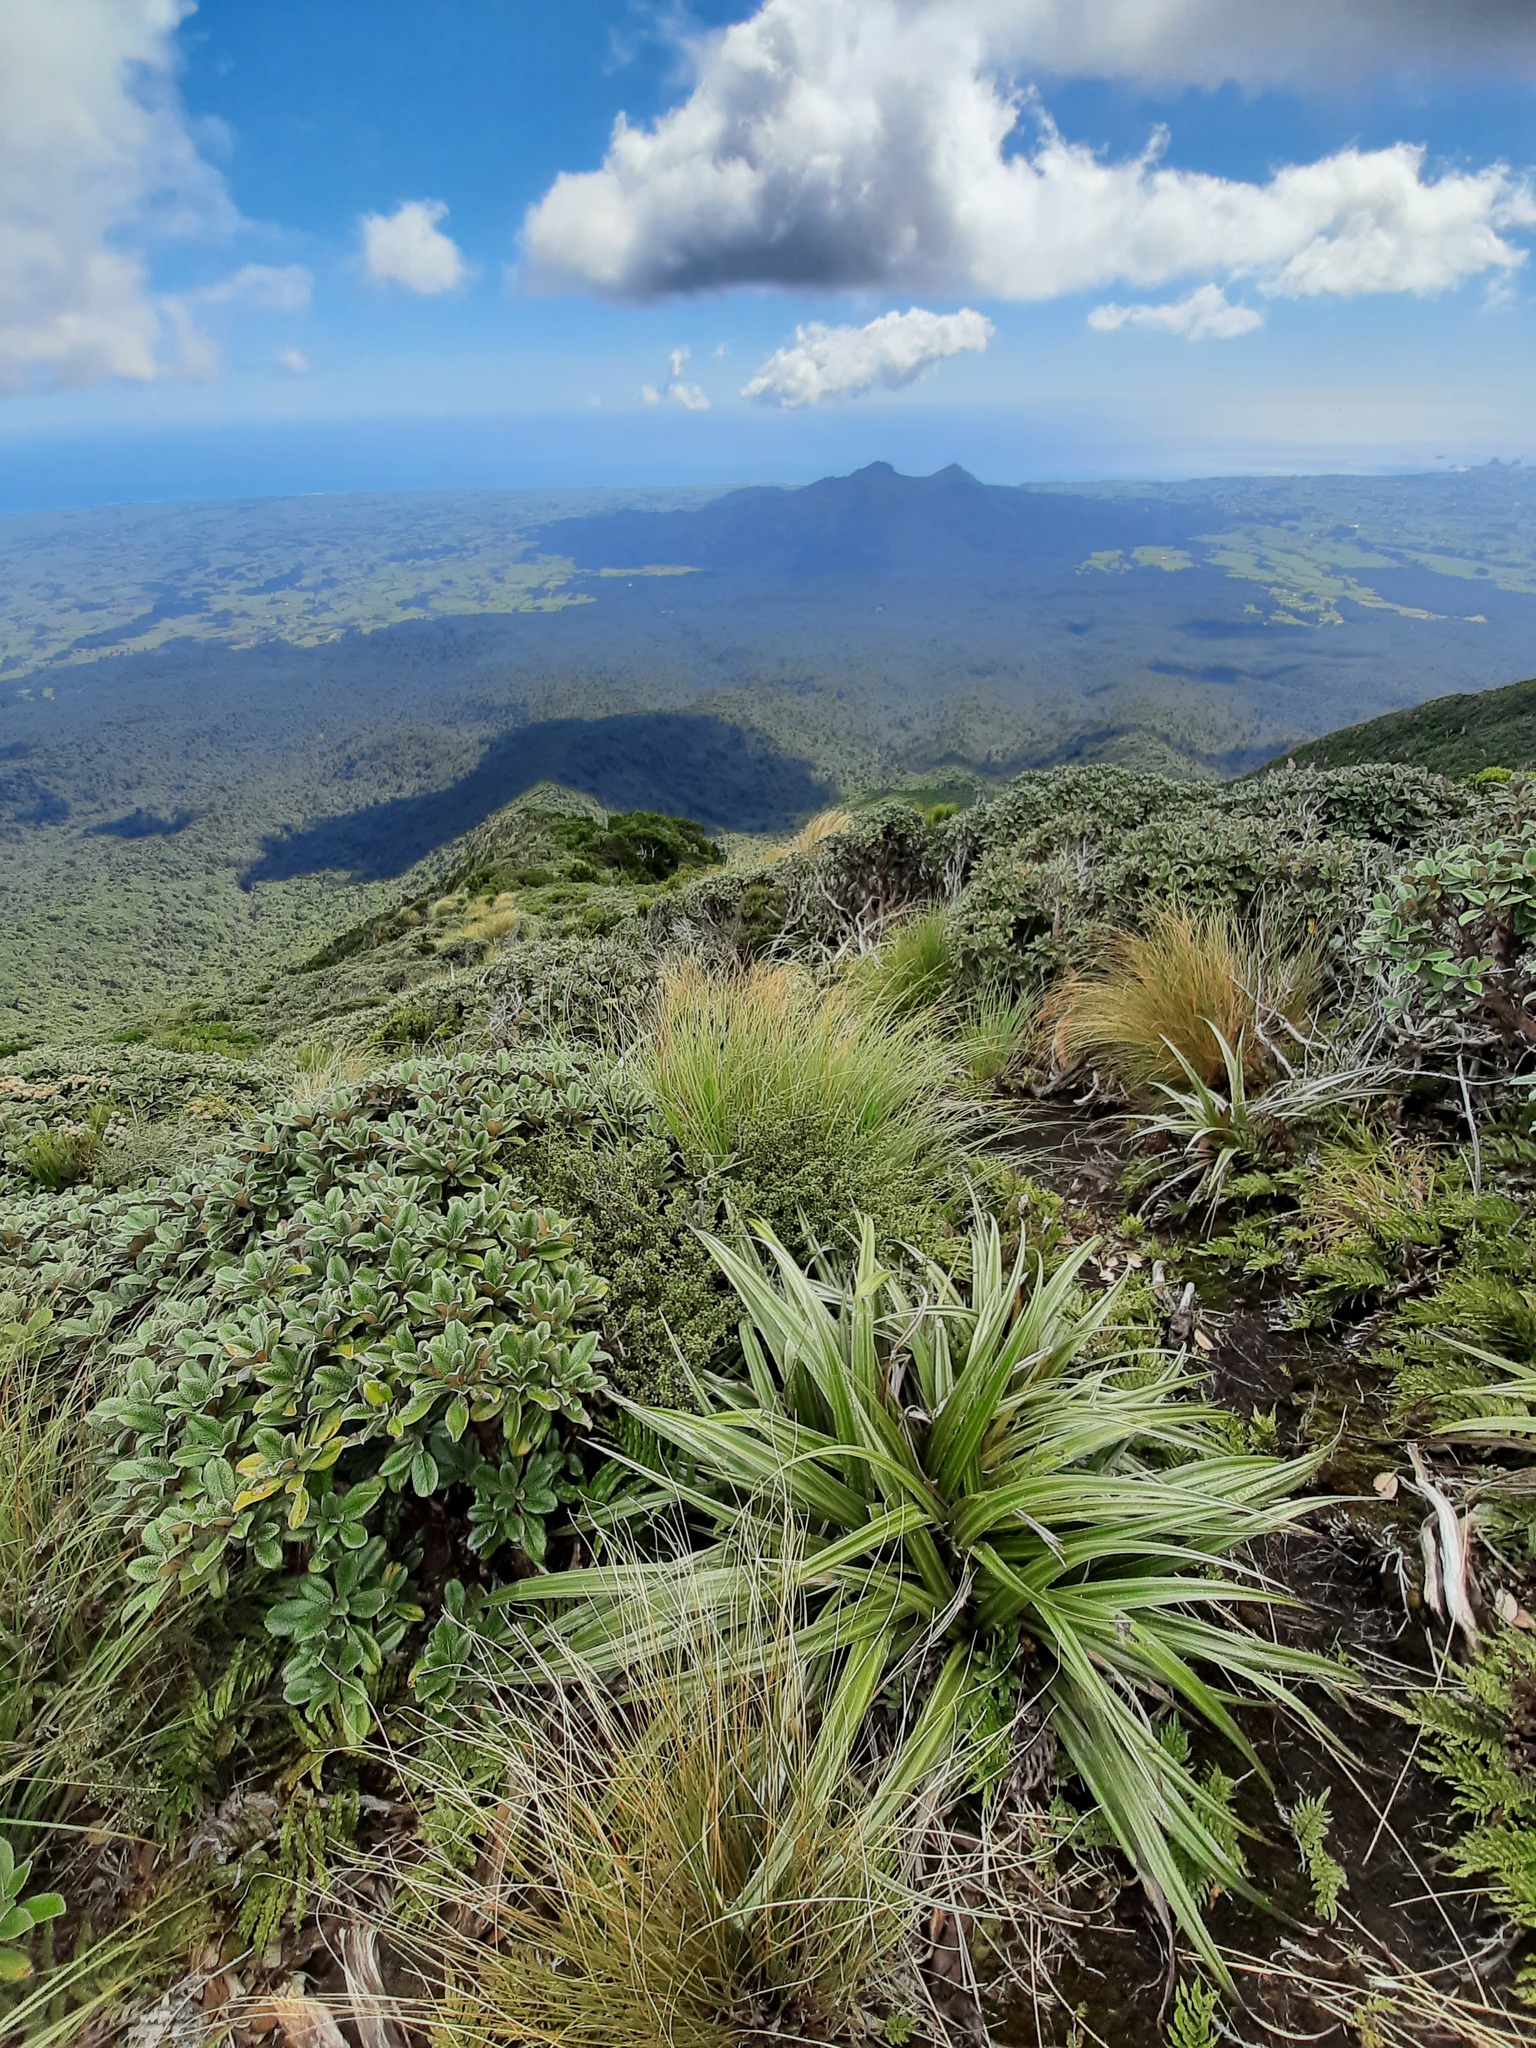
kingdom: Plantae
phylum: Tracheophyta
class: Liliopsida
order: Asparagales
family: Asteliaceae
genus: Astelia
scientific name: Astelia nervosa
